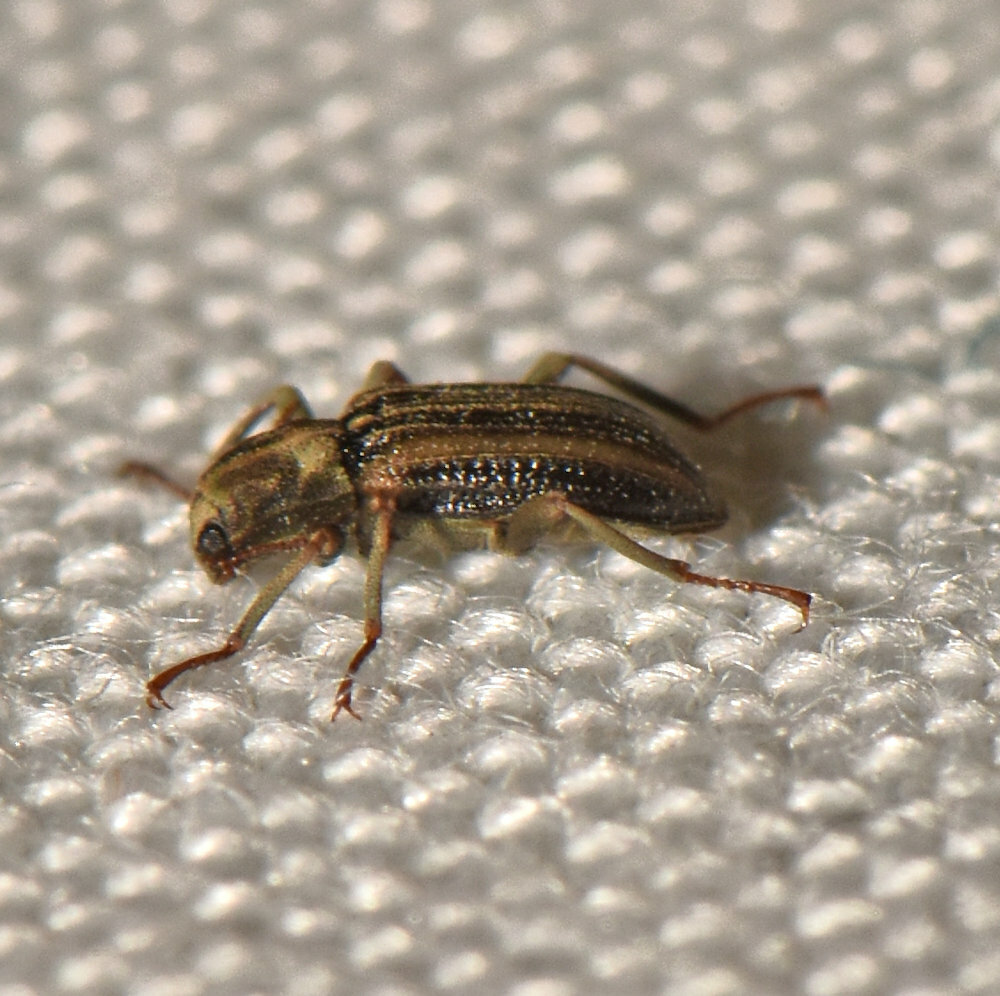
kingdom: Animalia
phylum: Arthropoda
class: Insecta
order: Coleoptera
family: Elmidae
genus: Stenelmis
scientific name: Stenelmis
